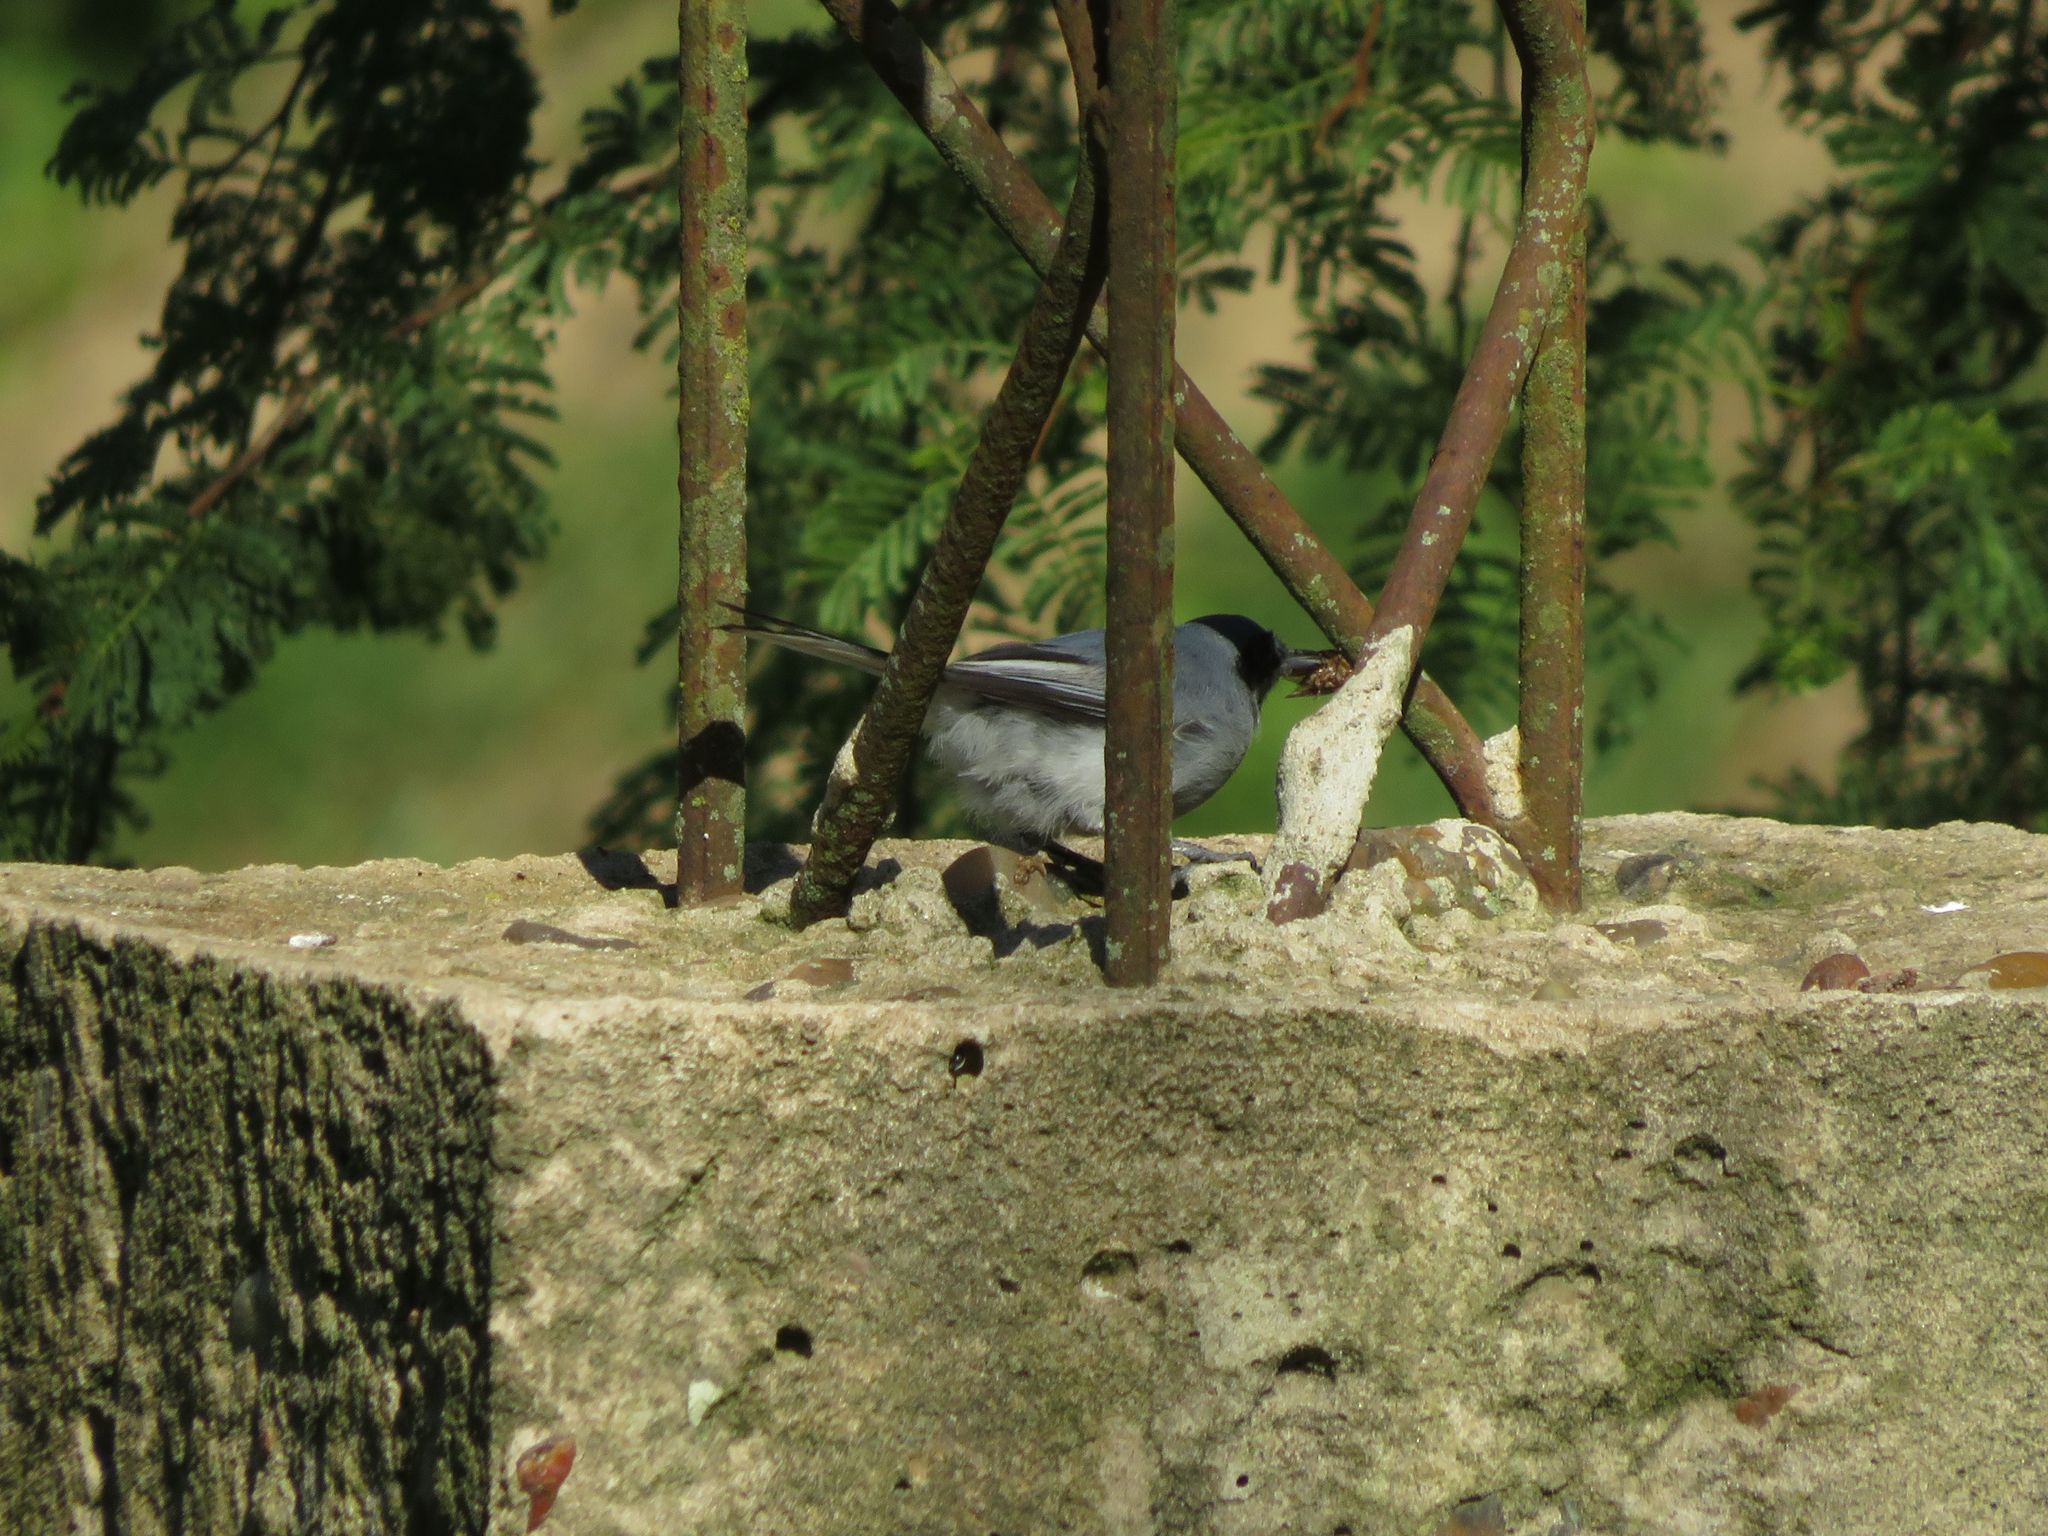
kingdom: Animalia
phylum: Chordata
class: Aves
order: Passeriformes
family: Polioptilidae
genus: Polioptila
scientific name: Polioptila dumicola
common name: Masked gnatcatcher
